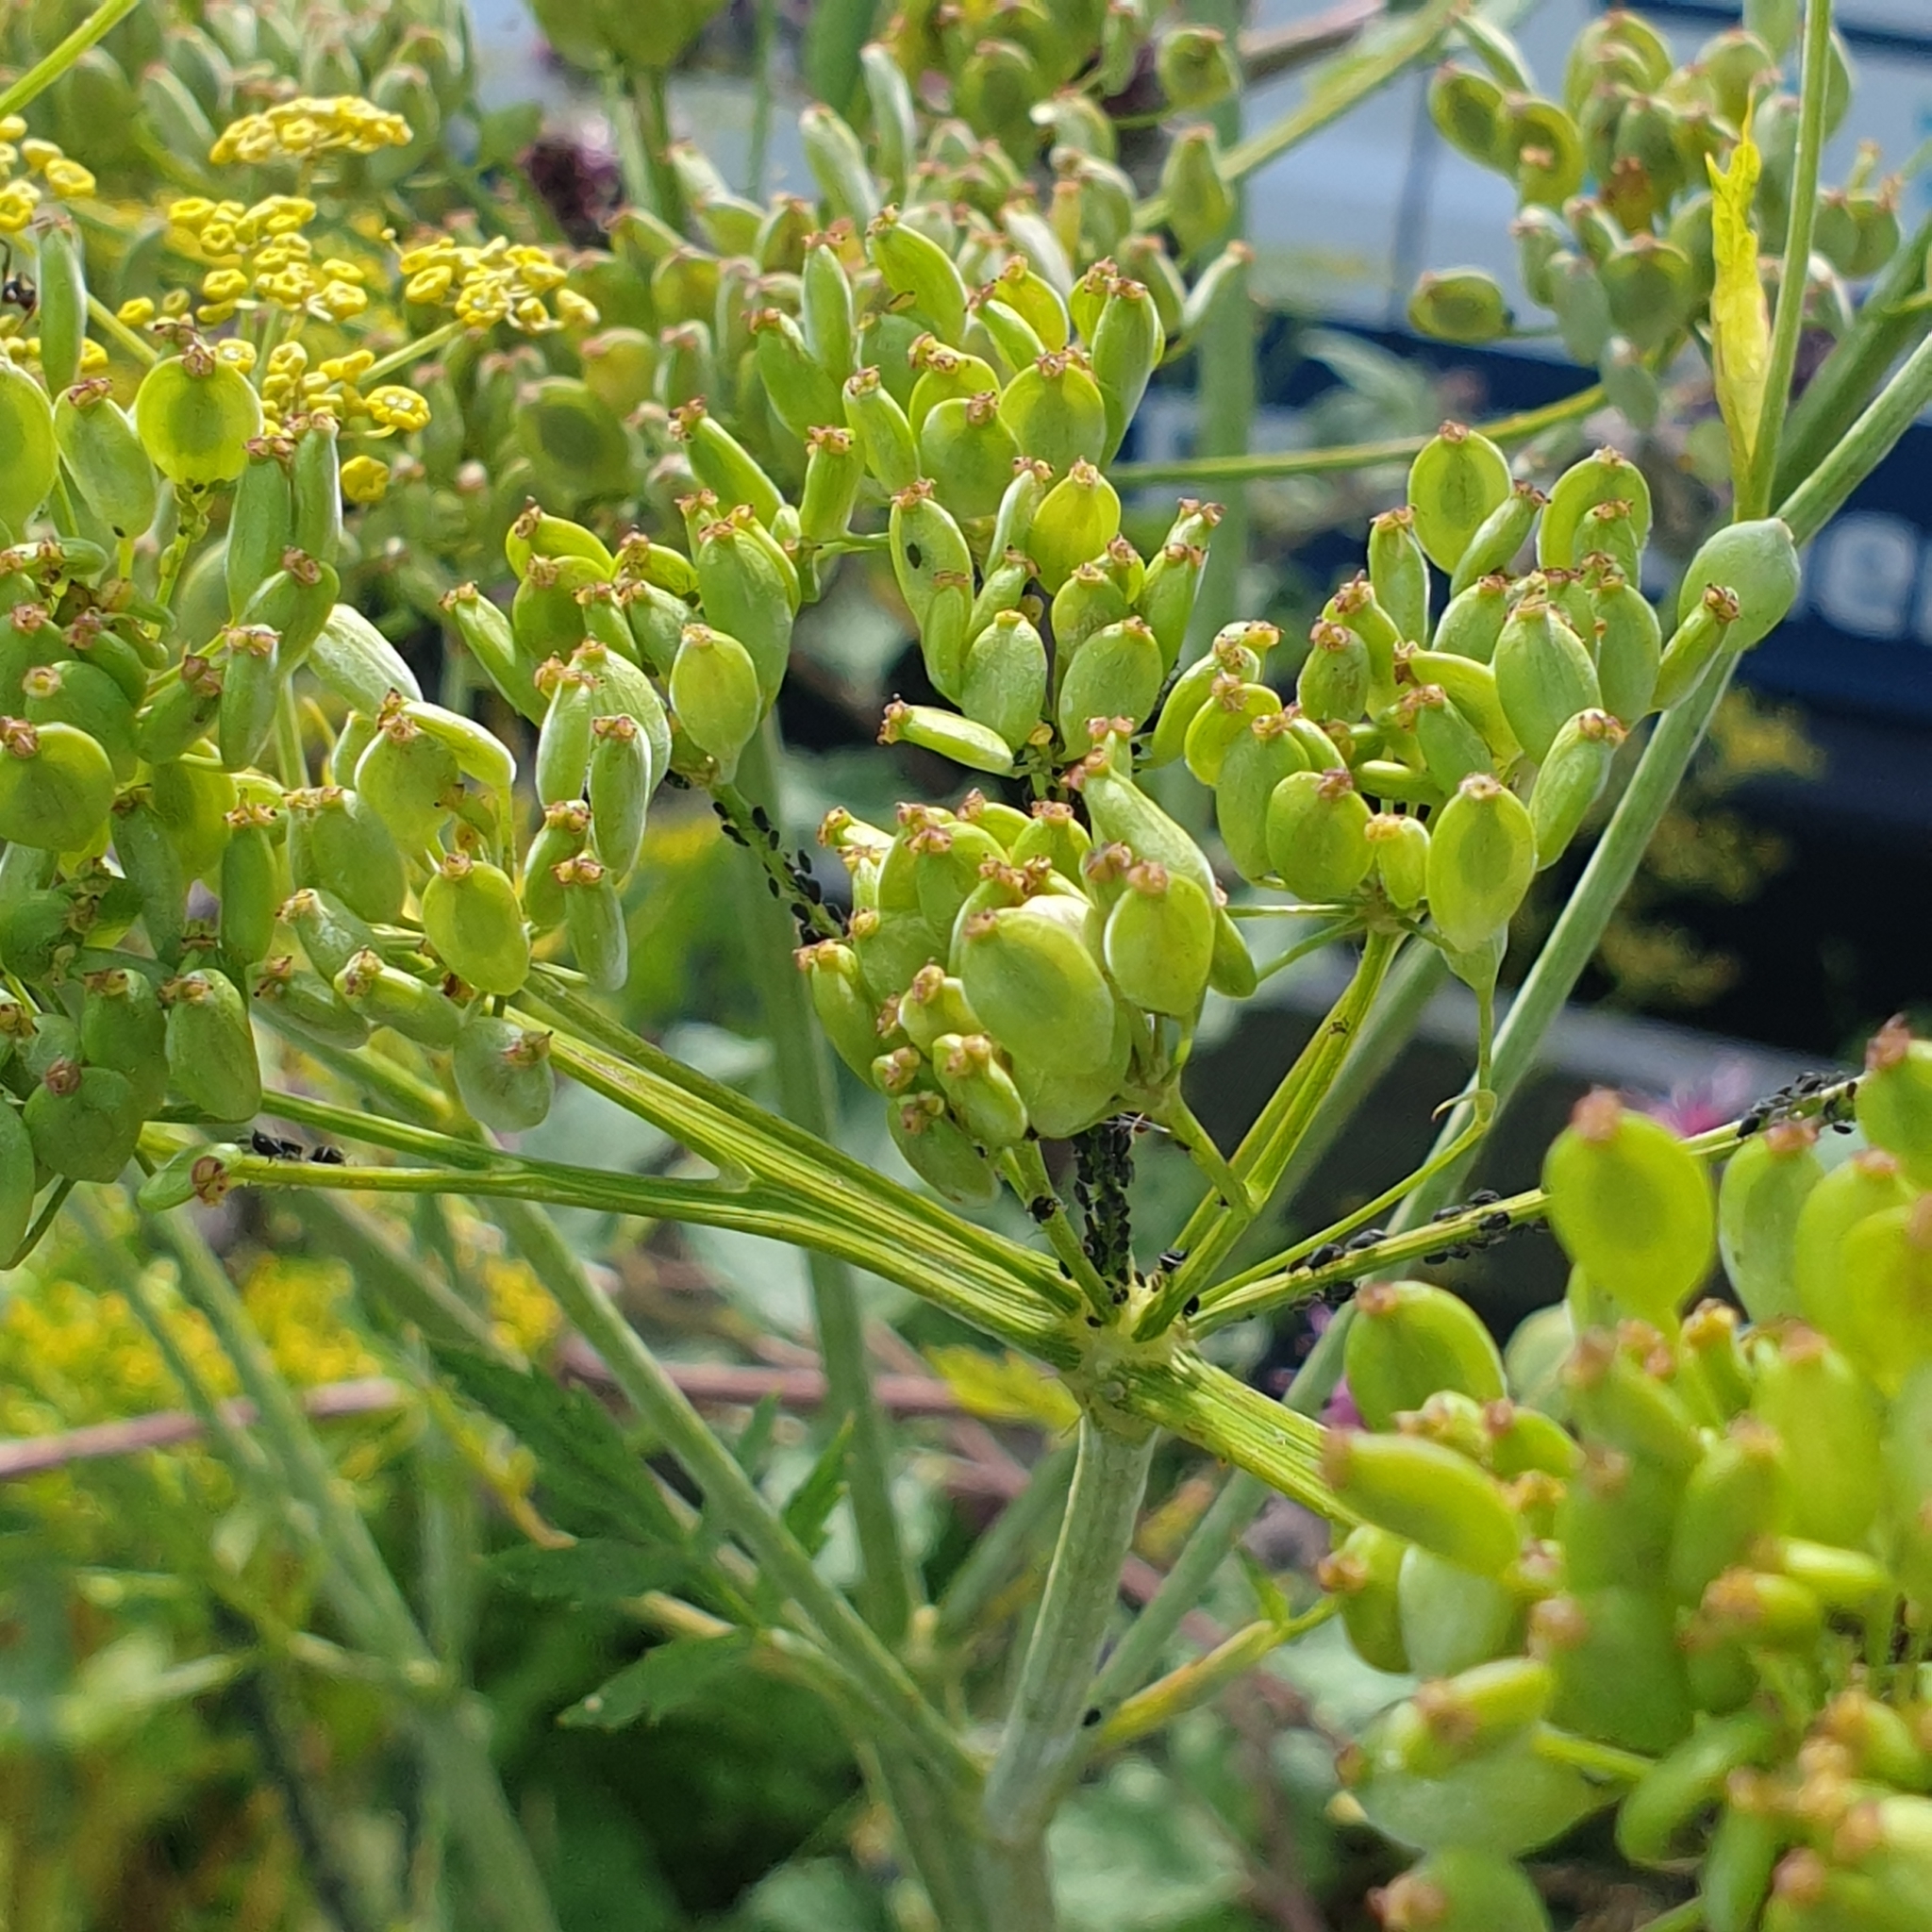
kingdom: Plantae
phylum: Tracheophyta
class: Magnoliopsida
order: Apiales
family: Apiaceae
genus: Pastinaca
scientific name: Pastinaca sativa
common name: Wild parsnip
